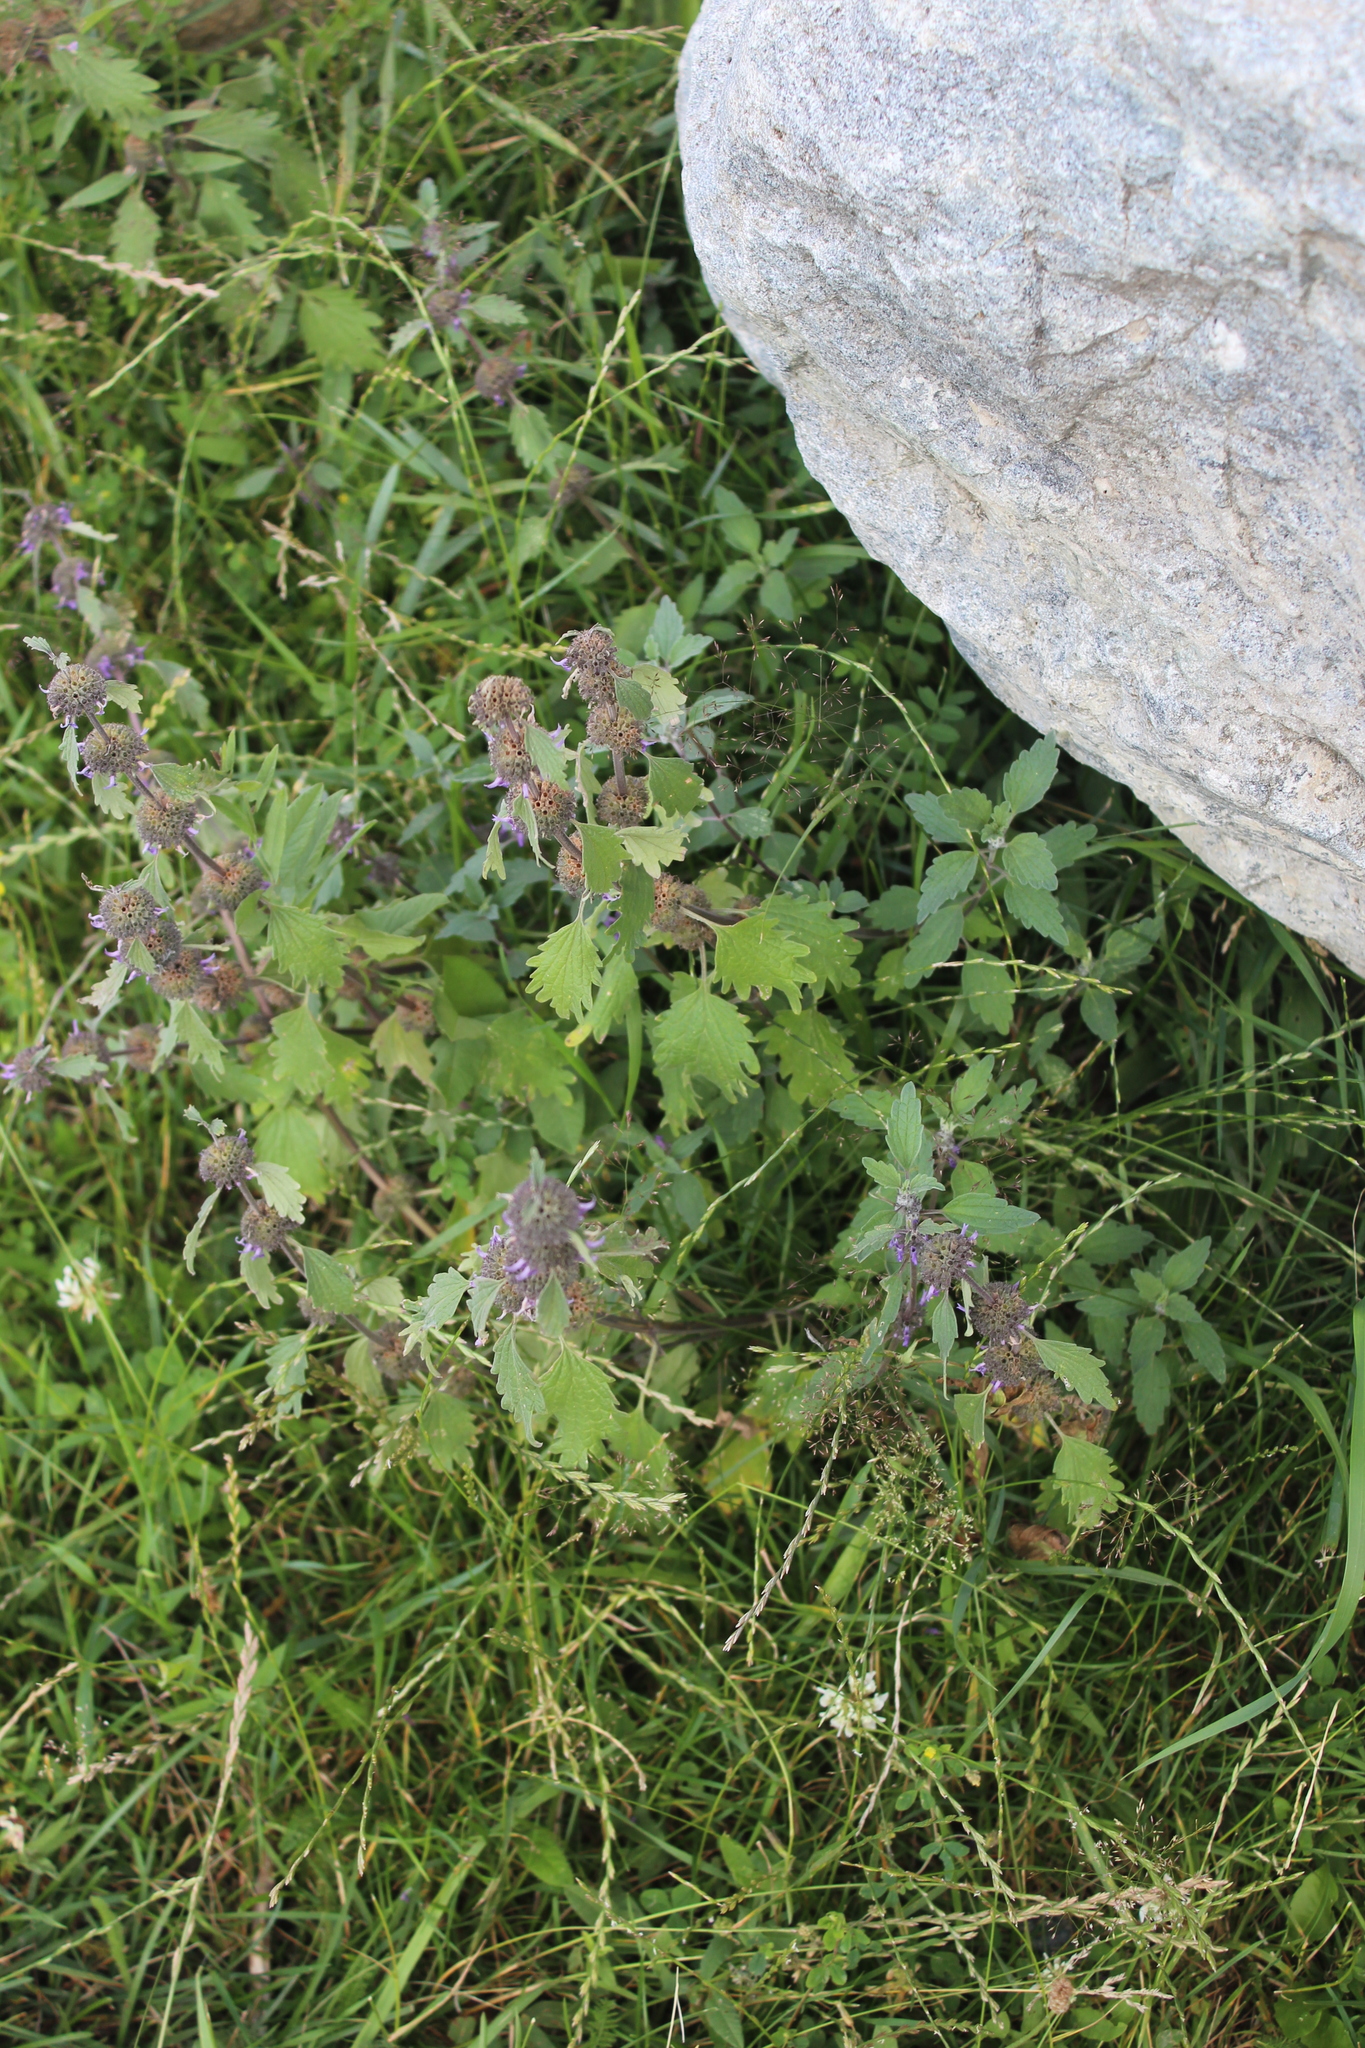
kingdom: Plantae
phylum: Tracheophyta
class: Magnoliopsida
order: Lamiales
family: Lamiaceae
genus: Marrubium
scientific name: Marrubium leonuroides
